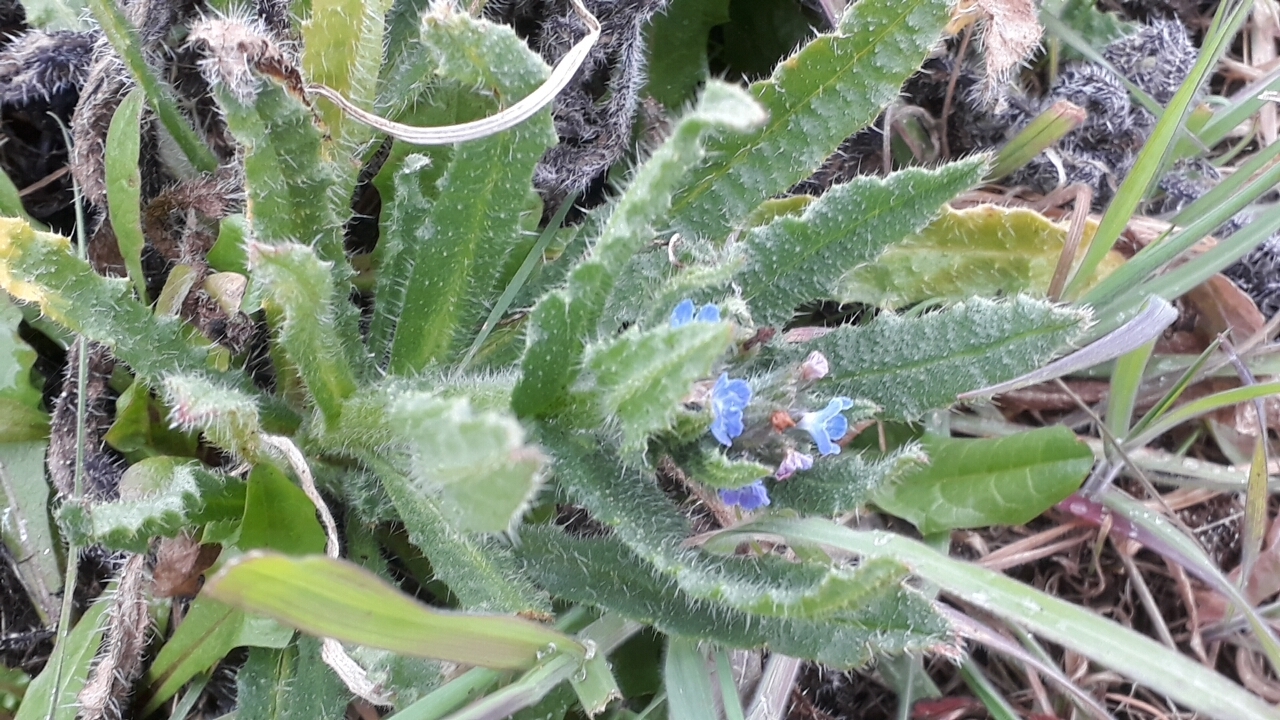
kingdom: Plantae
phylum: Tracheophyta
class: Magnoliopsida
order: Boraginales
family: Boraginaceae
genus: Lycopsis
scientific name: Lycopsis arvensis
